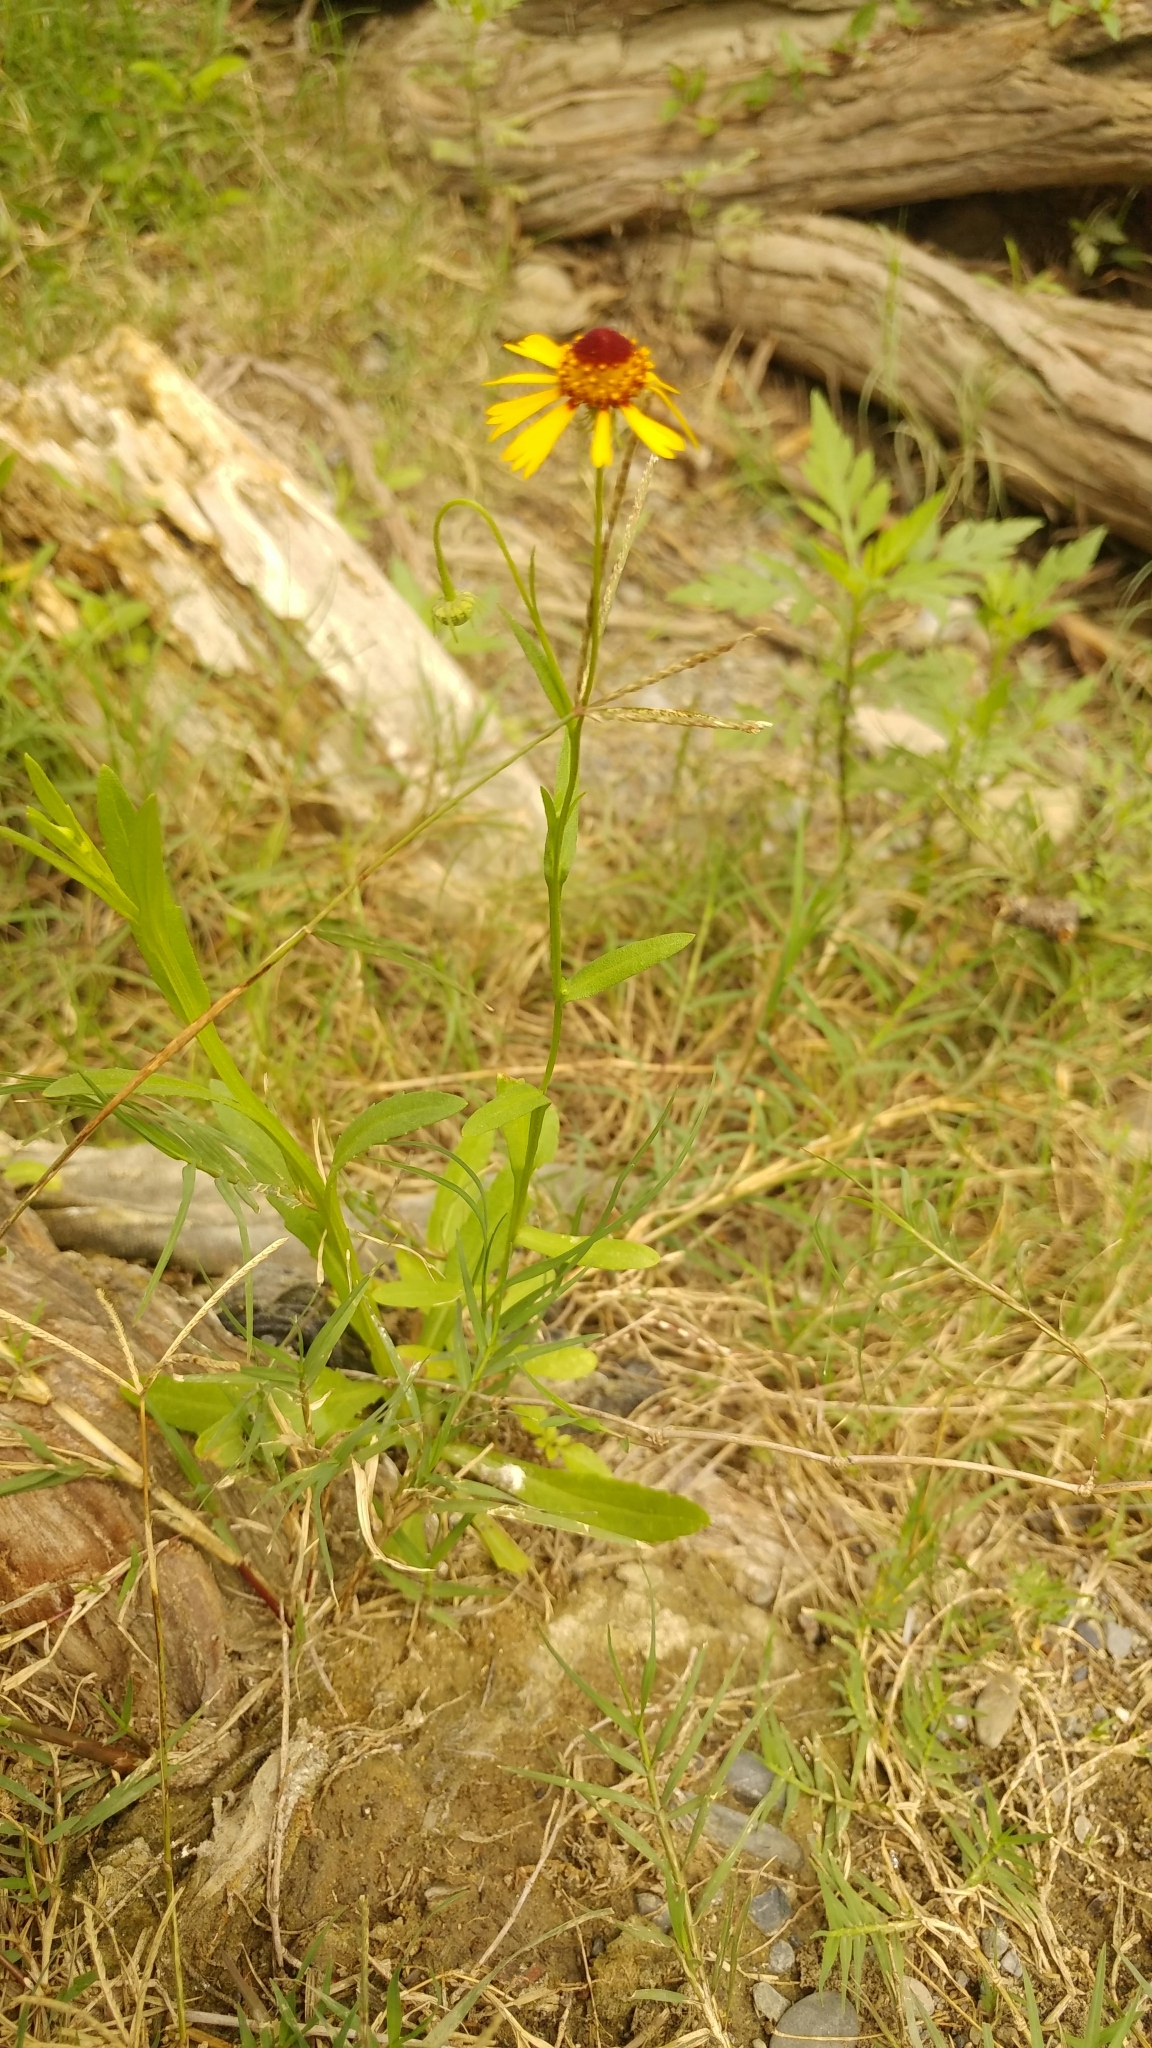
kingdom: Plantae
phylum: Tracheophyta
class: Magnoliopsida
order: Asterales
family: Asteraceae
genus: Helenium
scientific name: Helenium amphibolum
